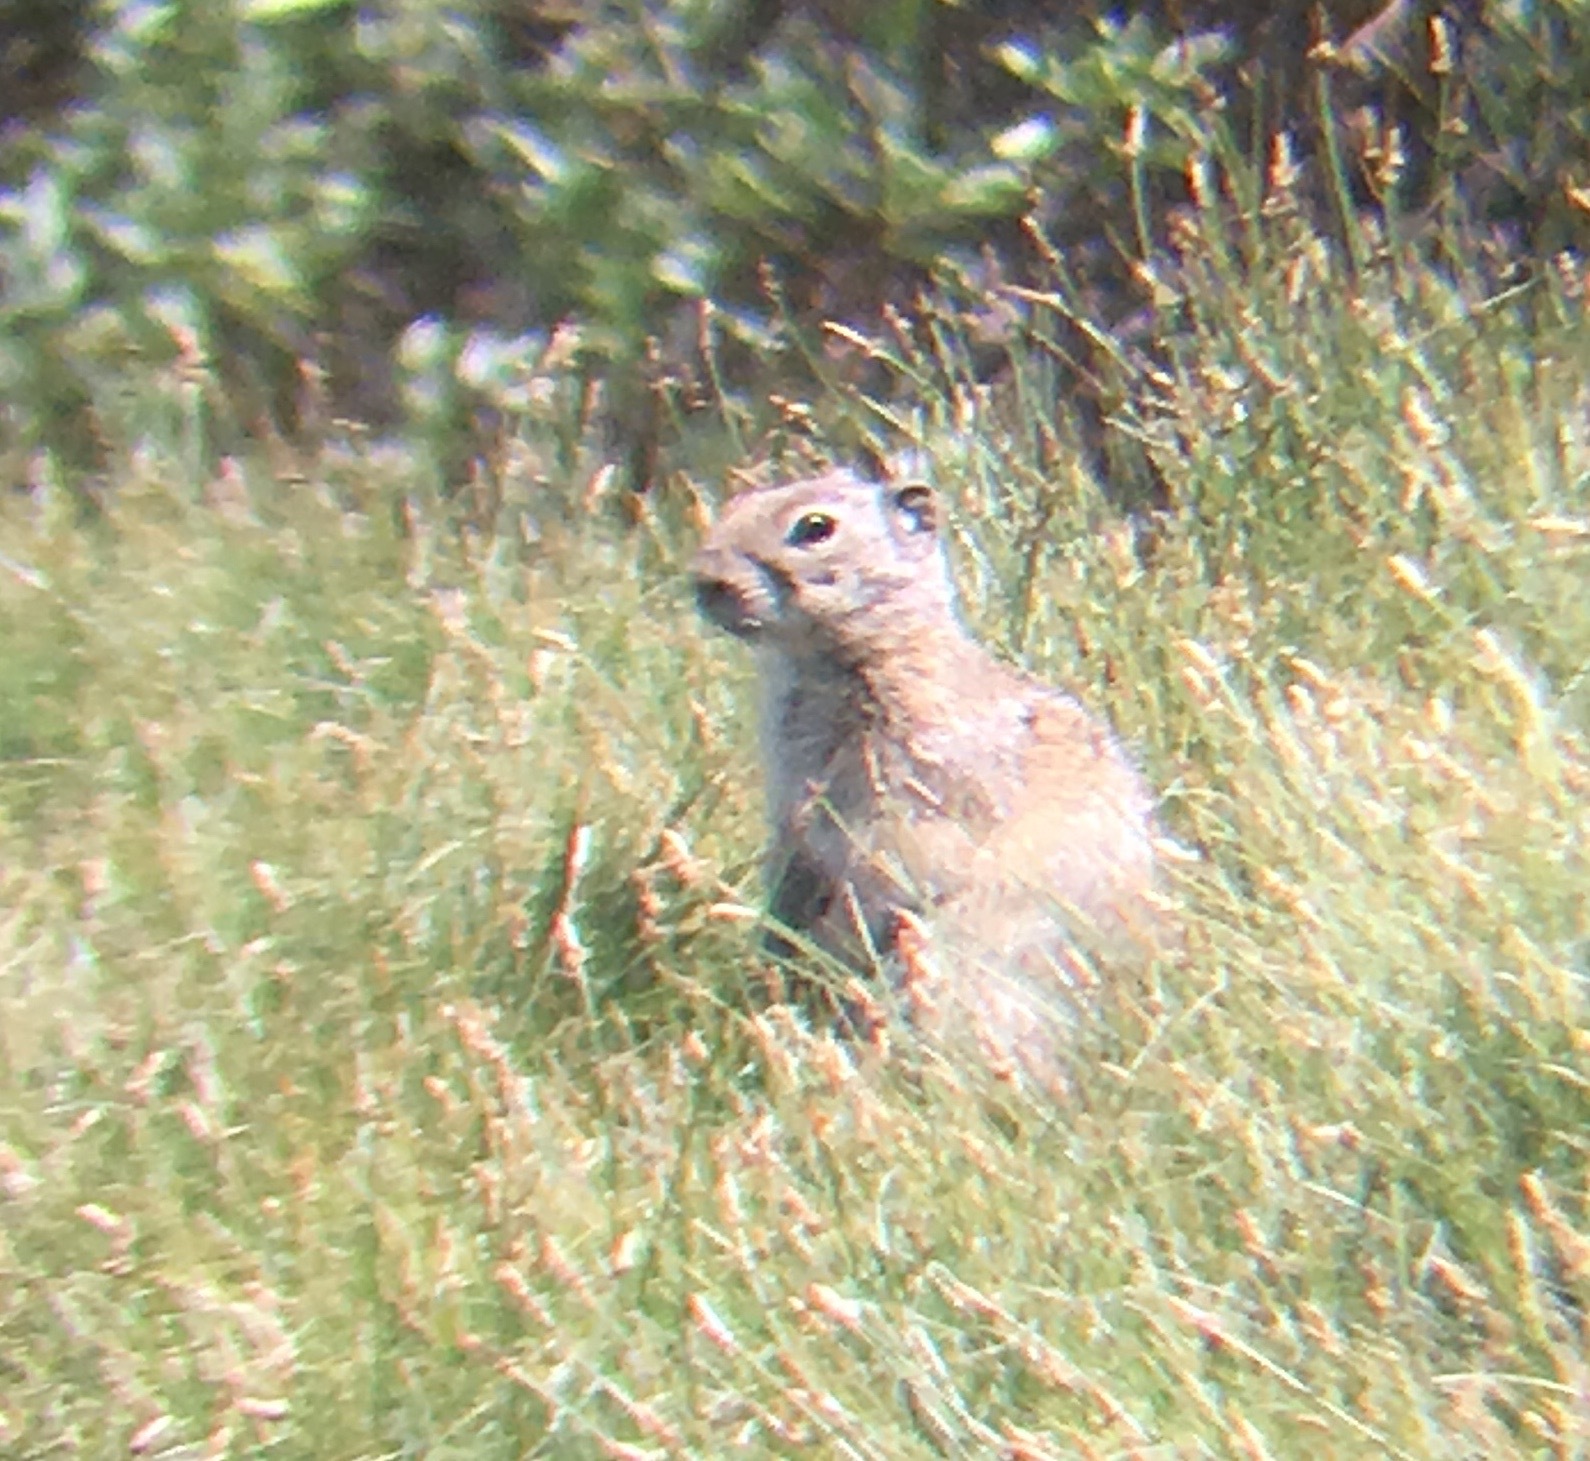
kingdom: Animalia
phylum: Chordata
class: Mammalia
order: Rodentia
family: Sciuridae
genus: Urocitellus
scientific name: Urocitellus beldingi
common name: Belding's ground squirrel
